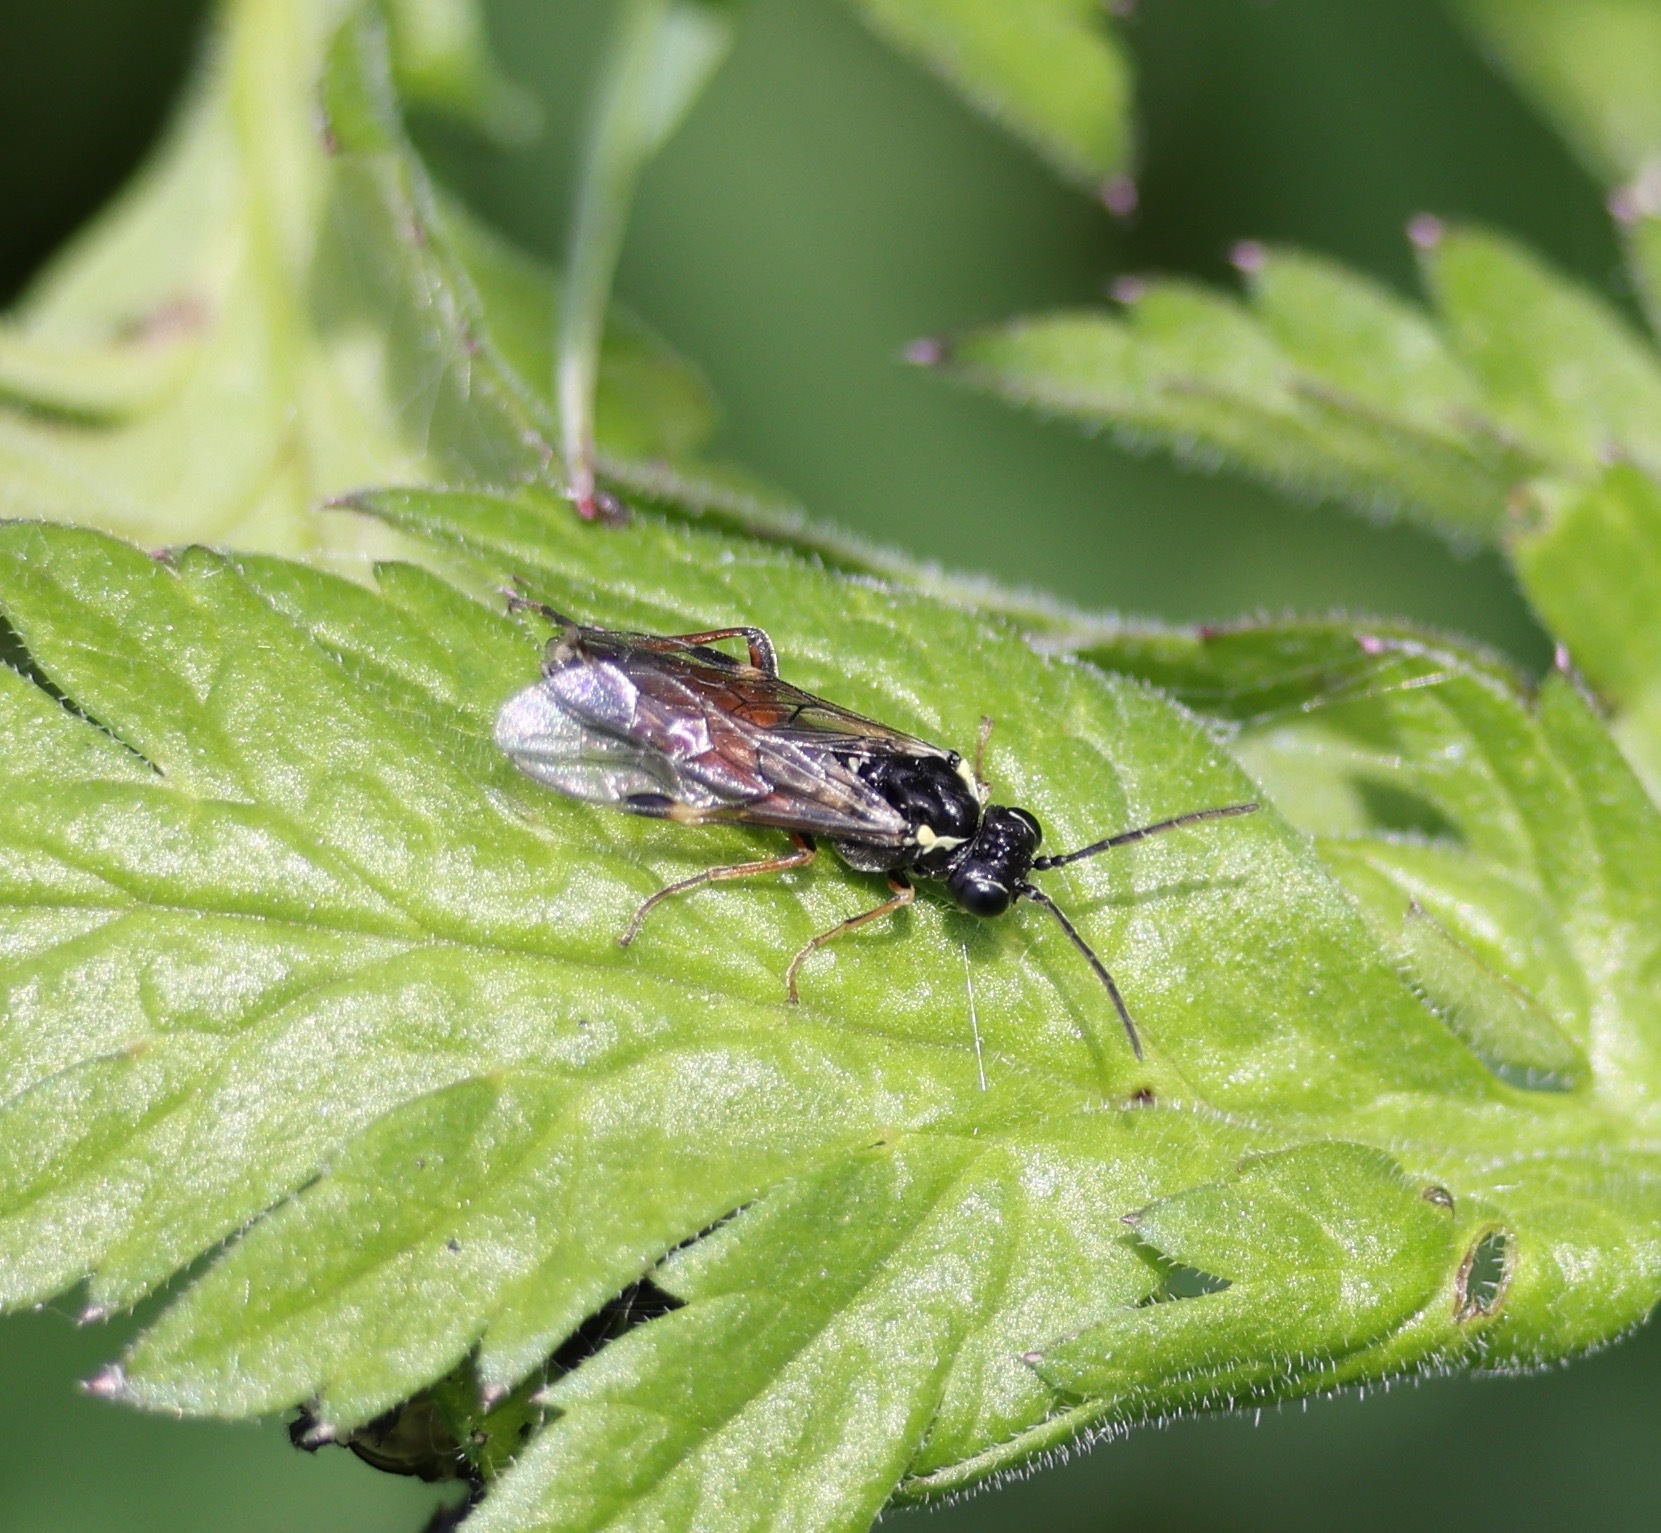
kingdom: Animalia
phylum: Arthropoda
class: Insecta
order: Hymenoptera
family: Tenthredinidae
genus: Aglaostigma
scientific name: Aglaostigma aucupariae
